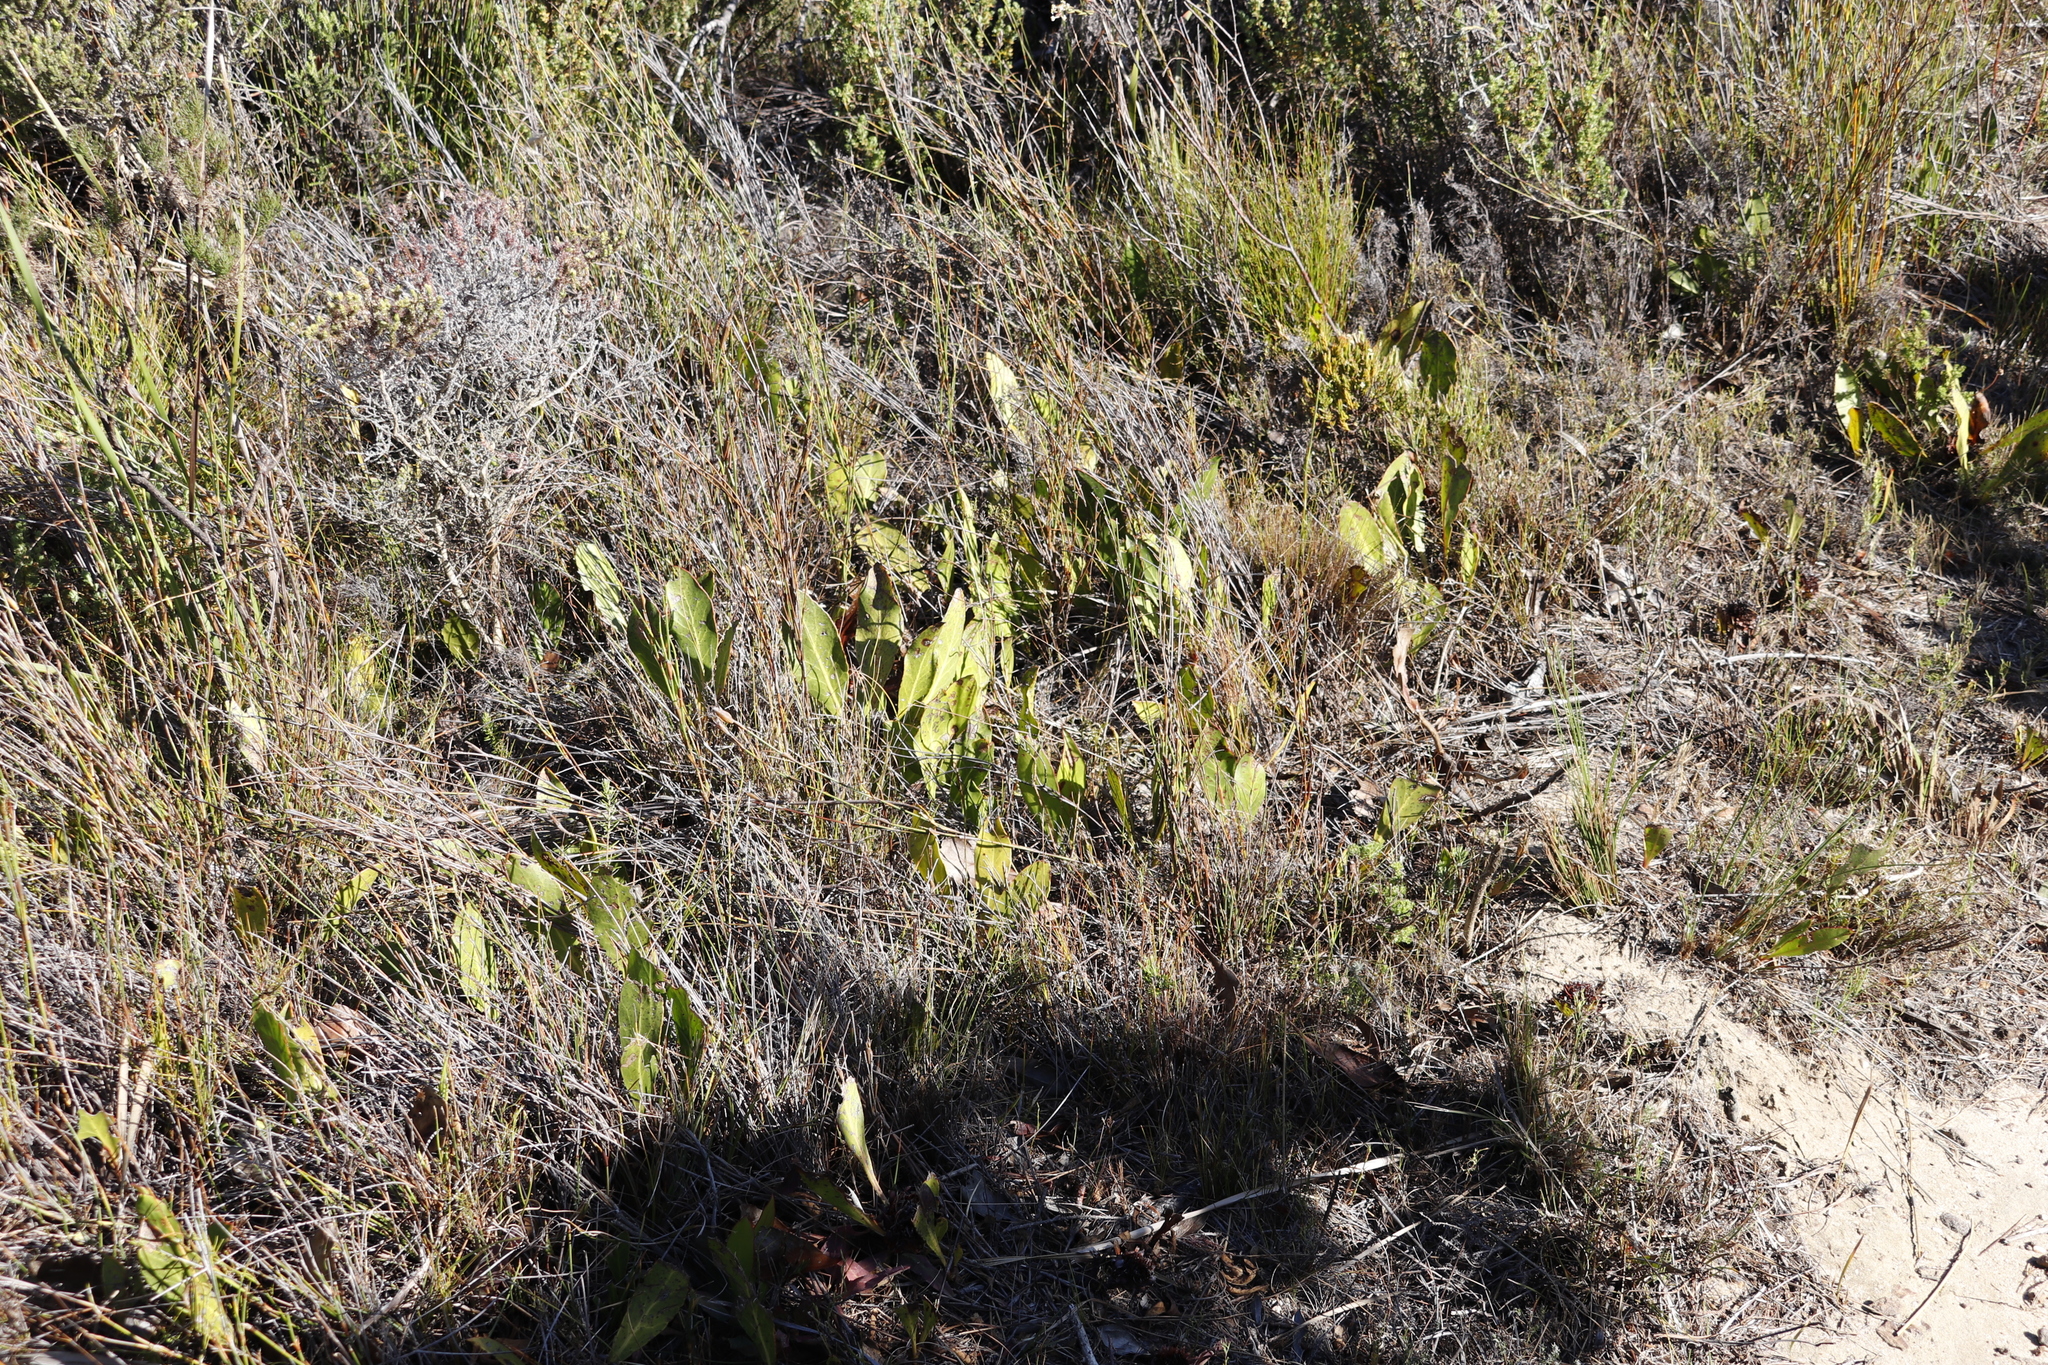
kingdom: Plantae
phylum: Tracheophyta
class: Magnoliopsida
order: Proteales
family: Proteaceae
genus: Protea
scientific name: Protea acaulos
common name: Common ground sugarbush
